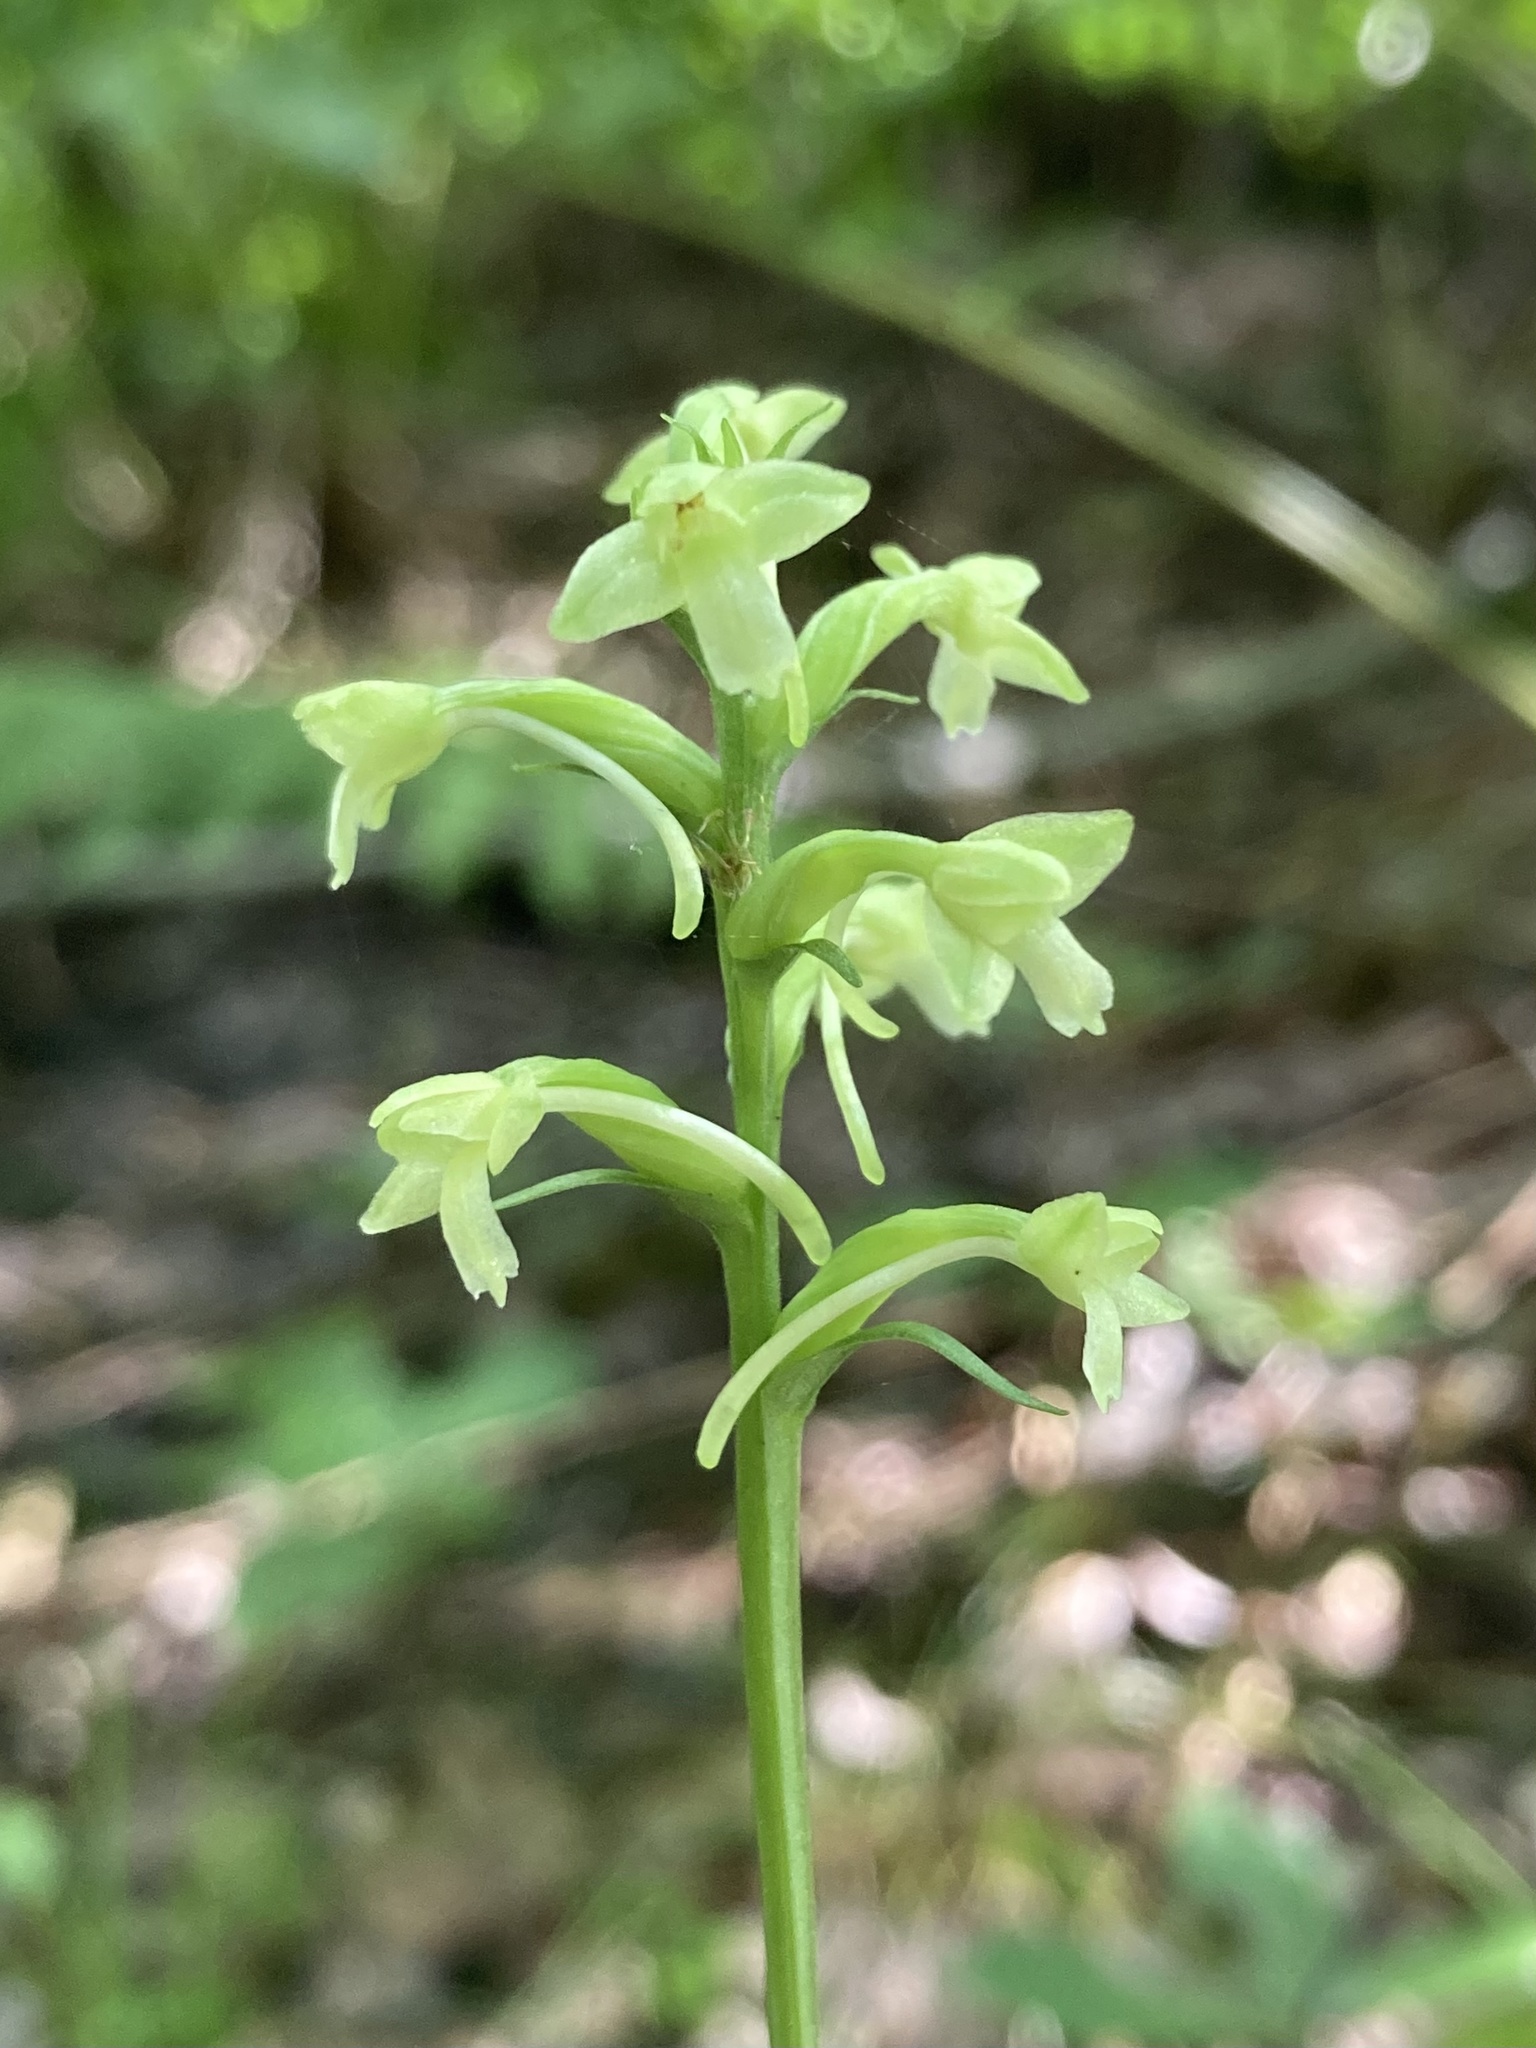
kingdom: Plantae
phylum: Tracheophyta
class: Liliopsida
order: Asparagales
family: Orchidaceae
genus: Platanthera
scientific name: Platanthera clavellata
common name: Club-spur orchid
